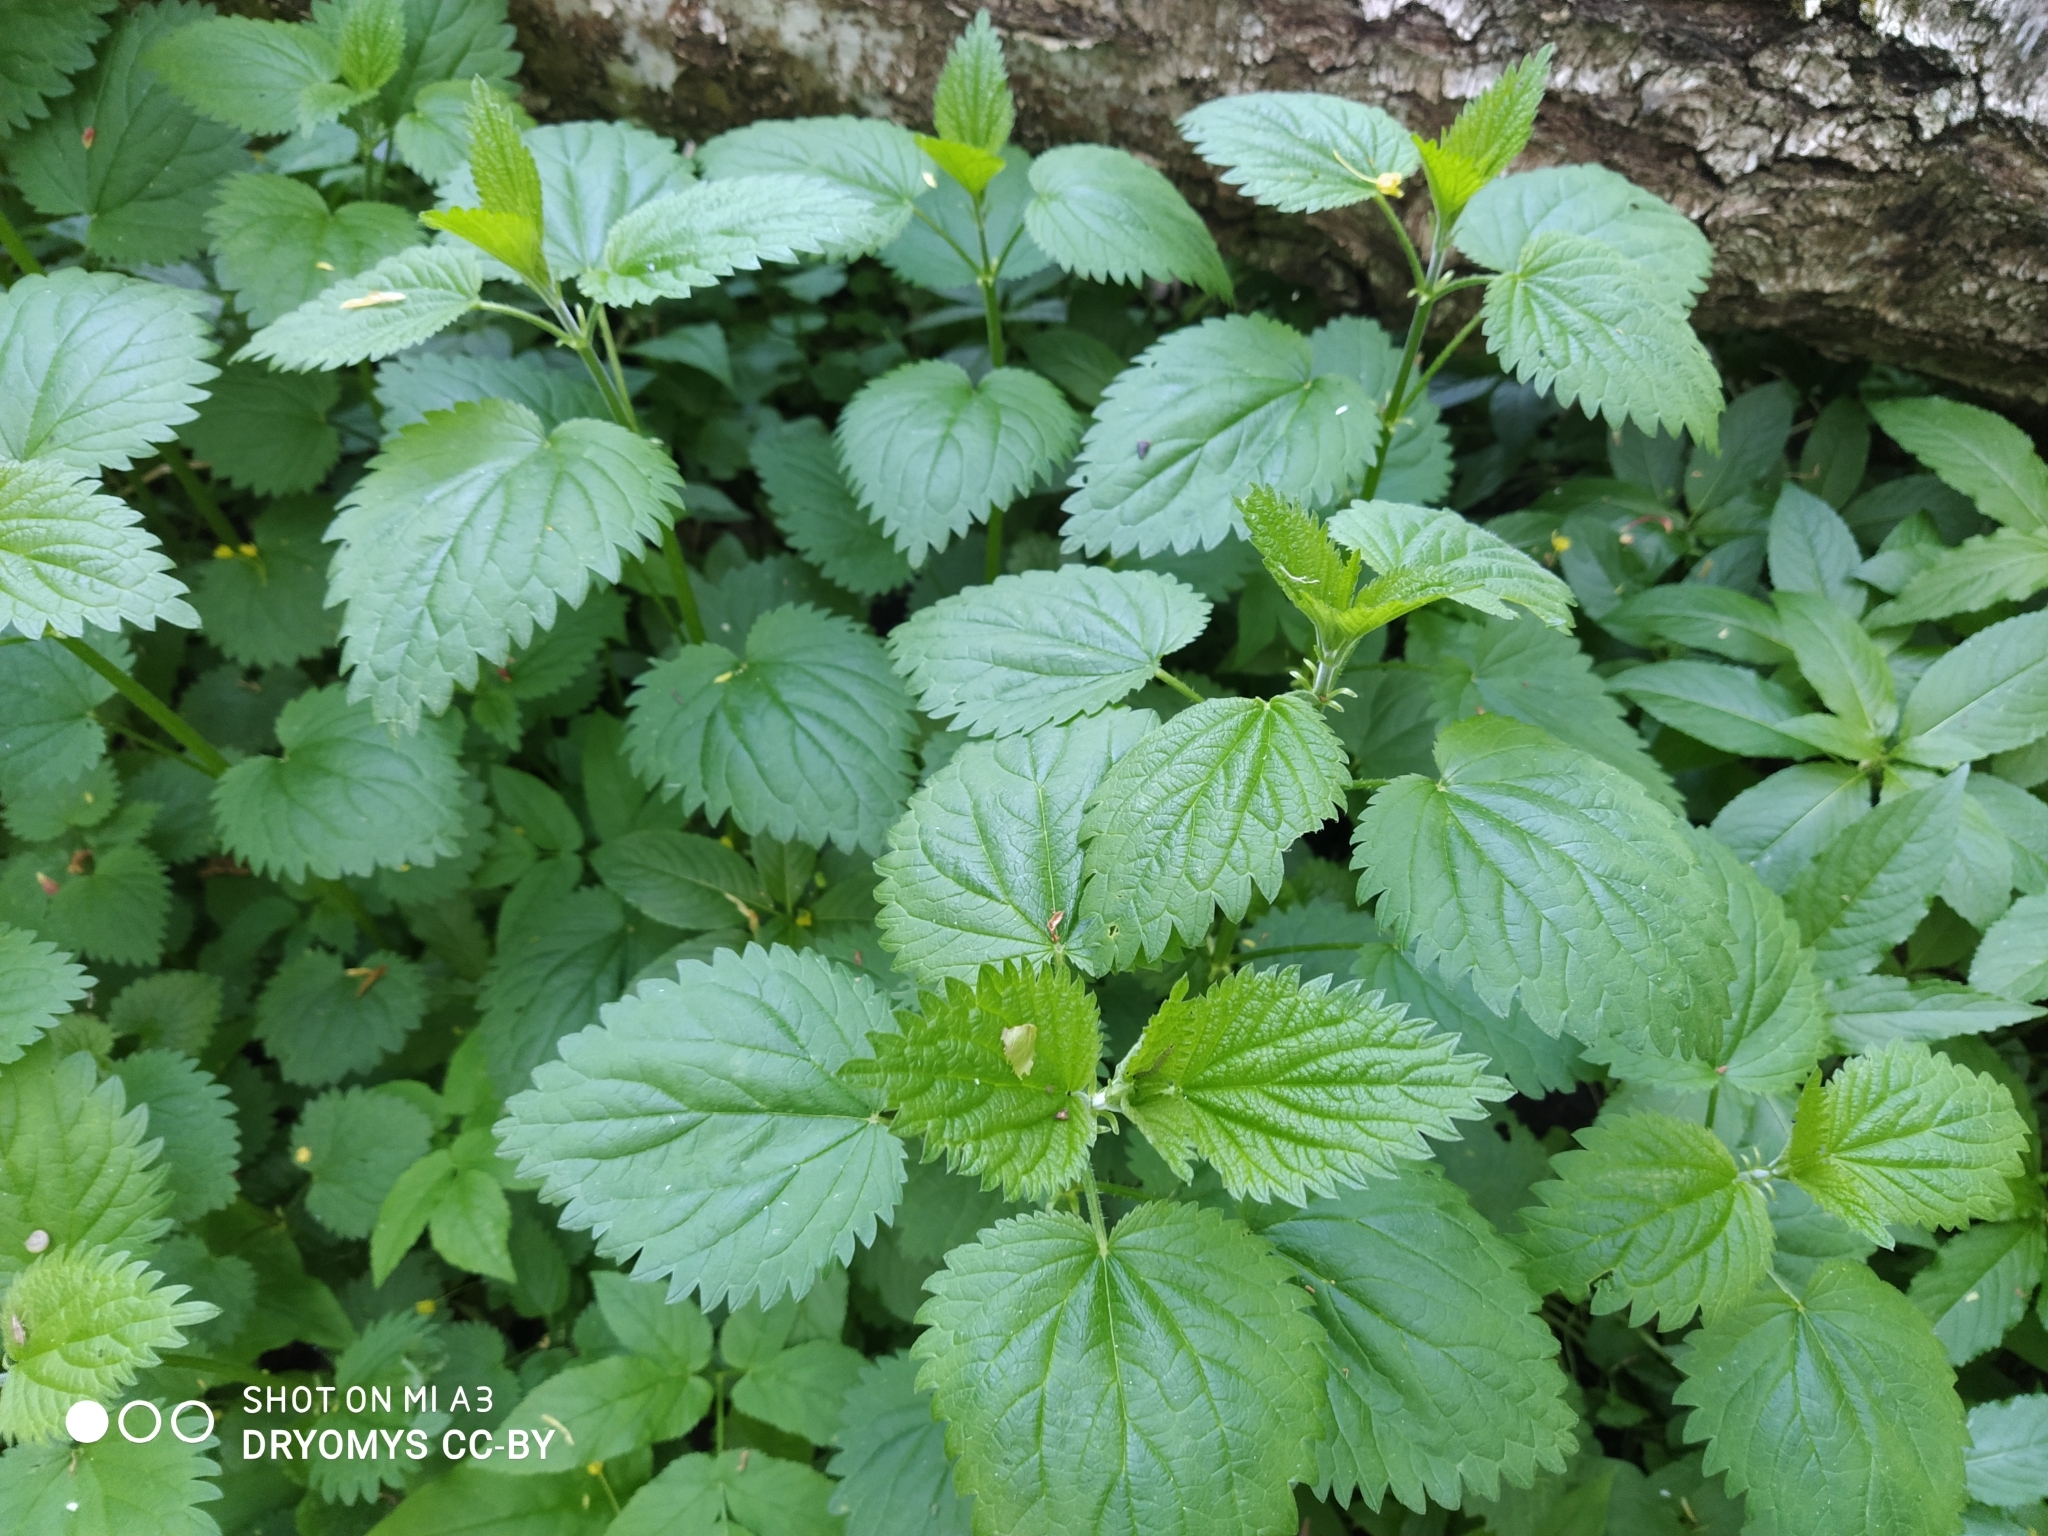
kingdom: Plantae
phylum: Tracheophyta
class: Magnoliopsida
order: Rosales
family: Urticaceae
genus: Urtica
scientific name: Urtica dioica
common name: Common nettle
